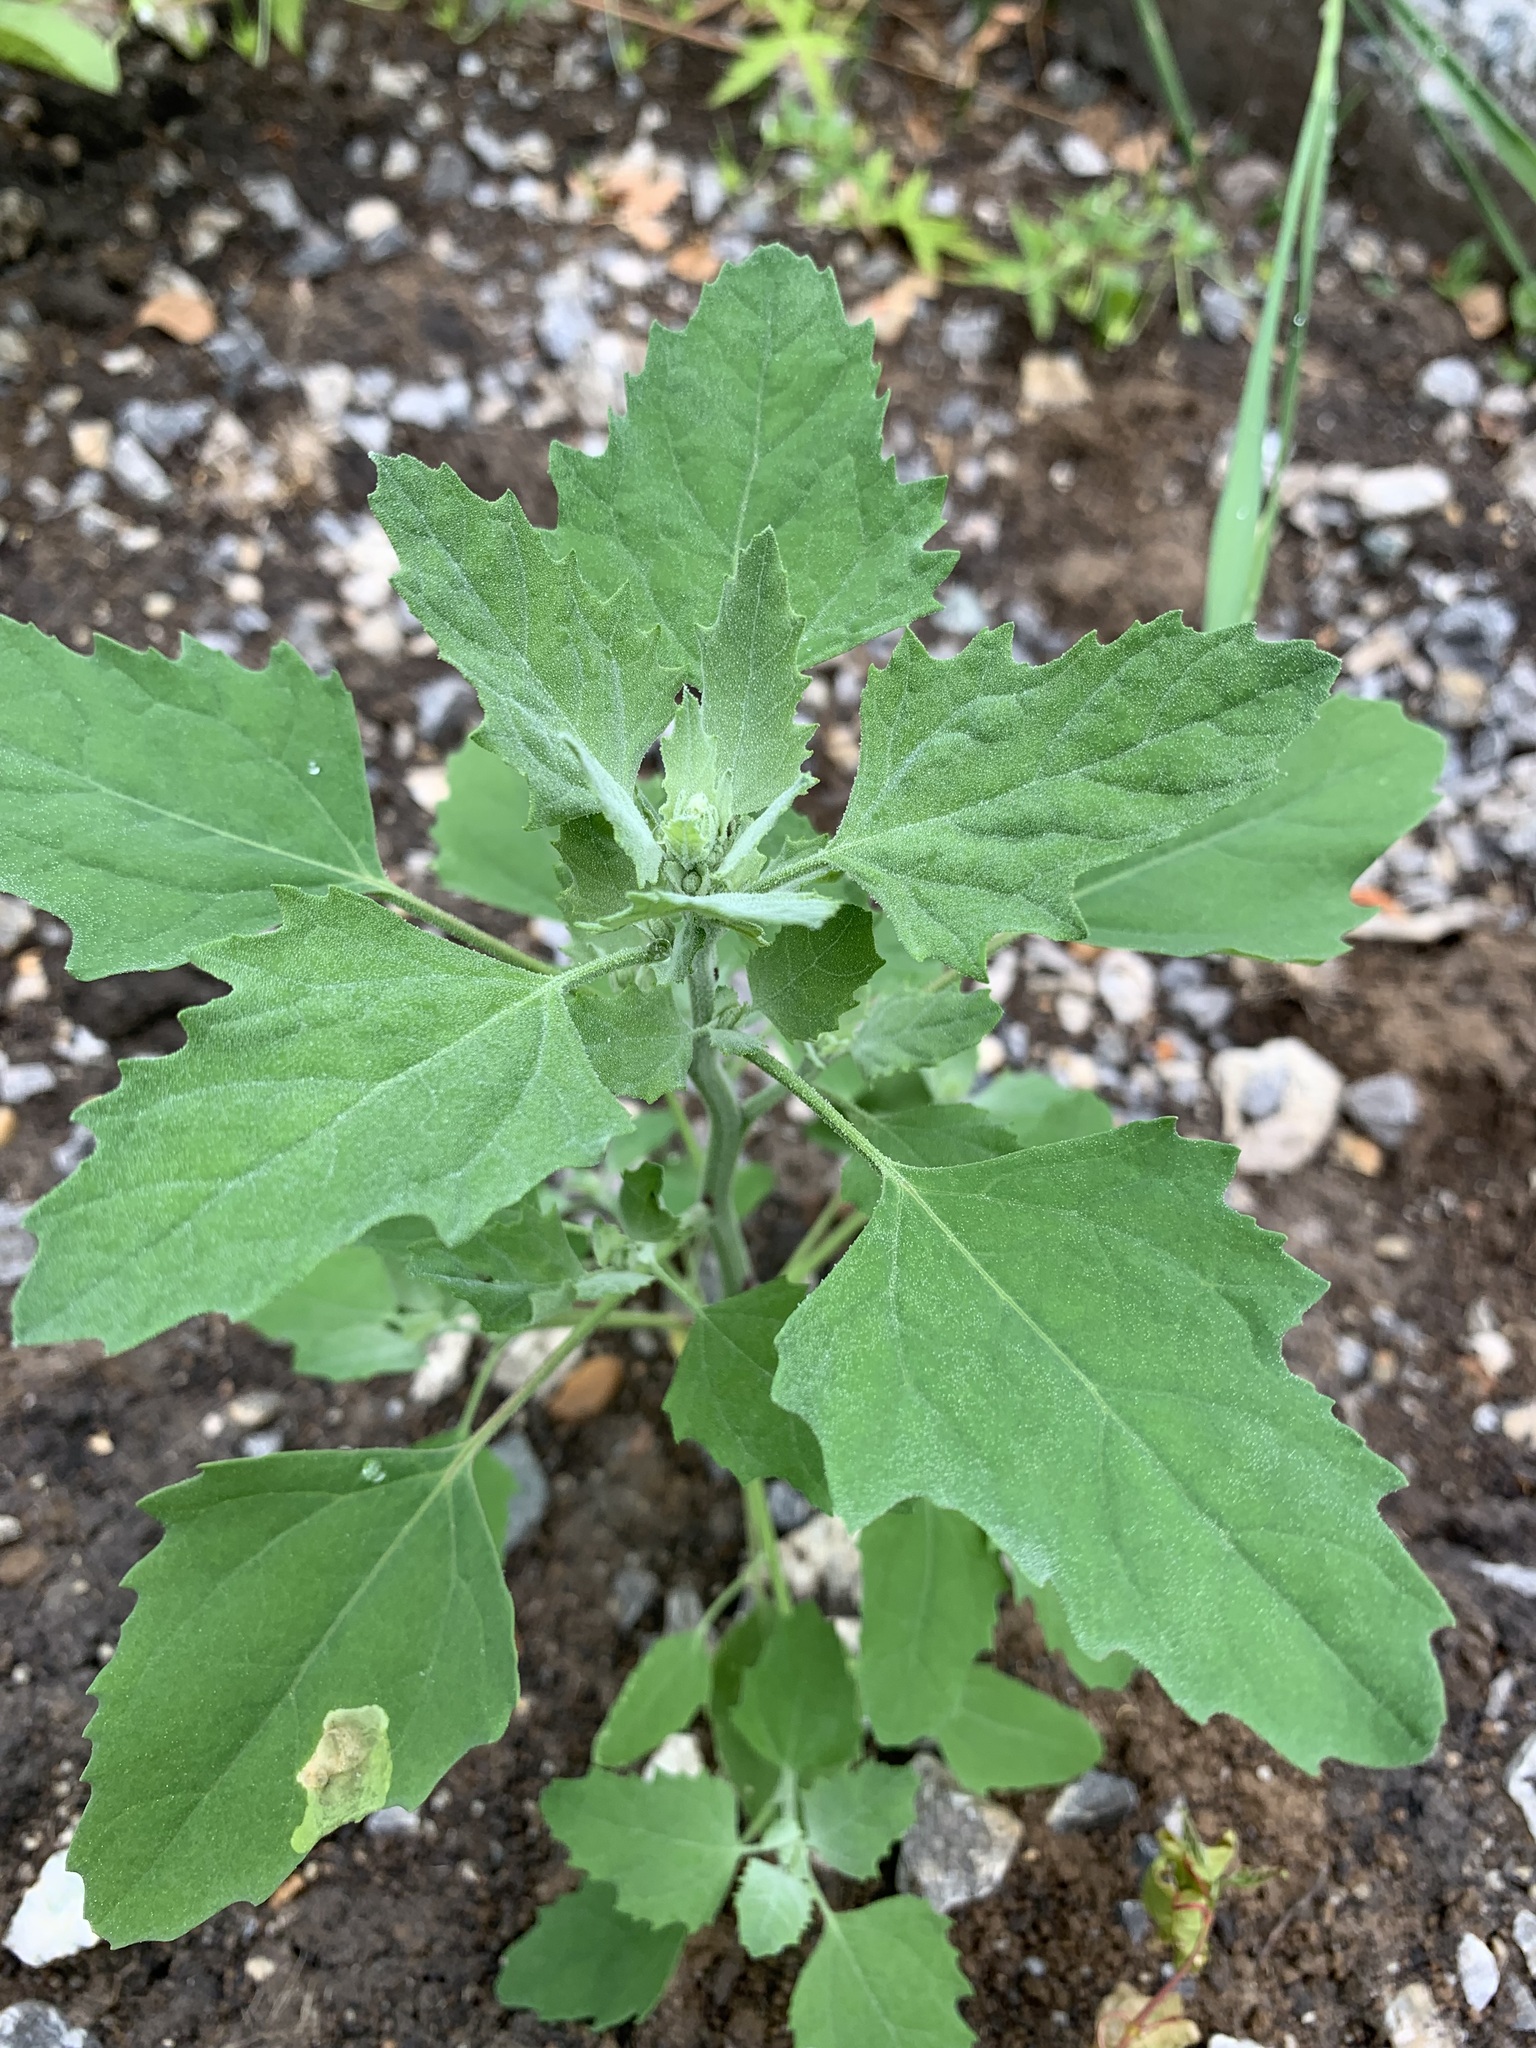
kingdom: Plantae
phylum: Tracheophyta
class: Magnoliopsida
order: Caryophyllales
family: Amaranthaceae
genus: Chenopodium
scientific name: Chenopodium album
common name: Fat-hen
